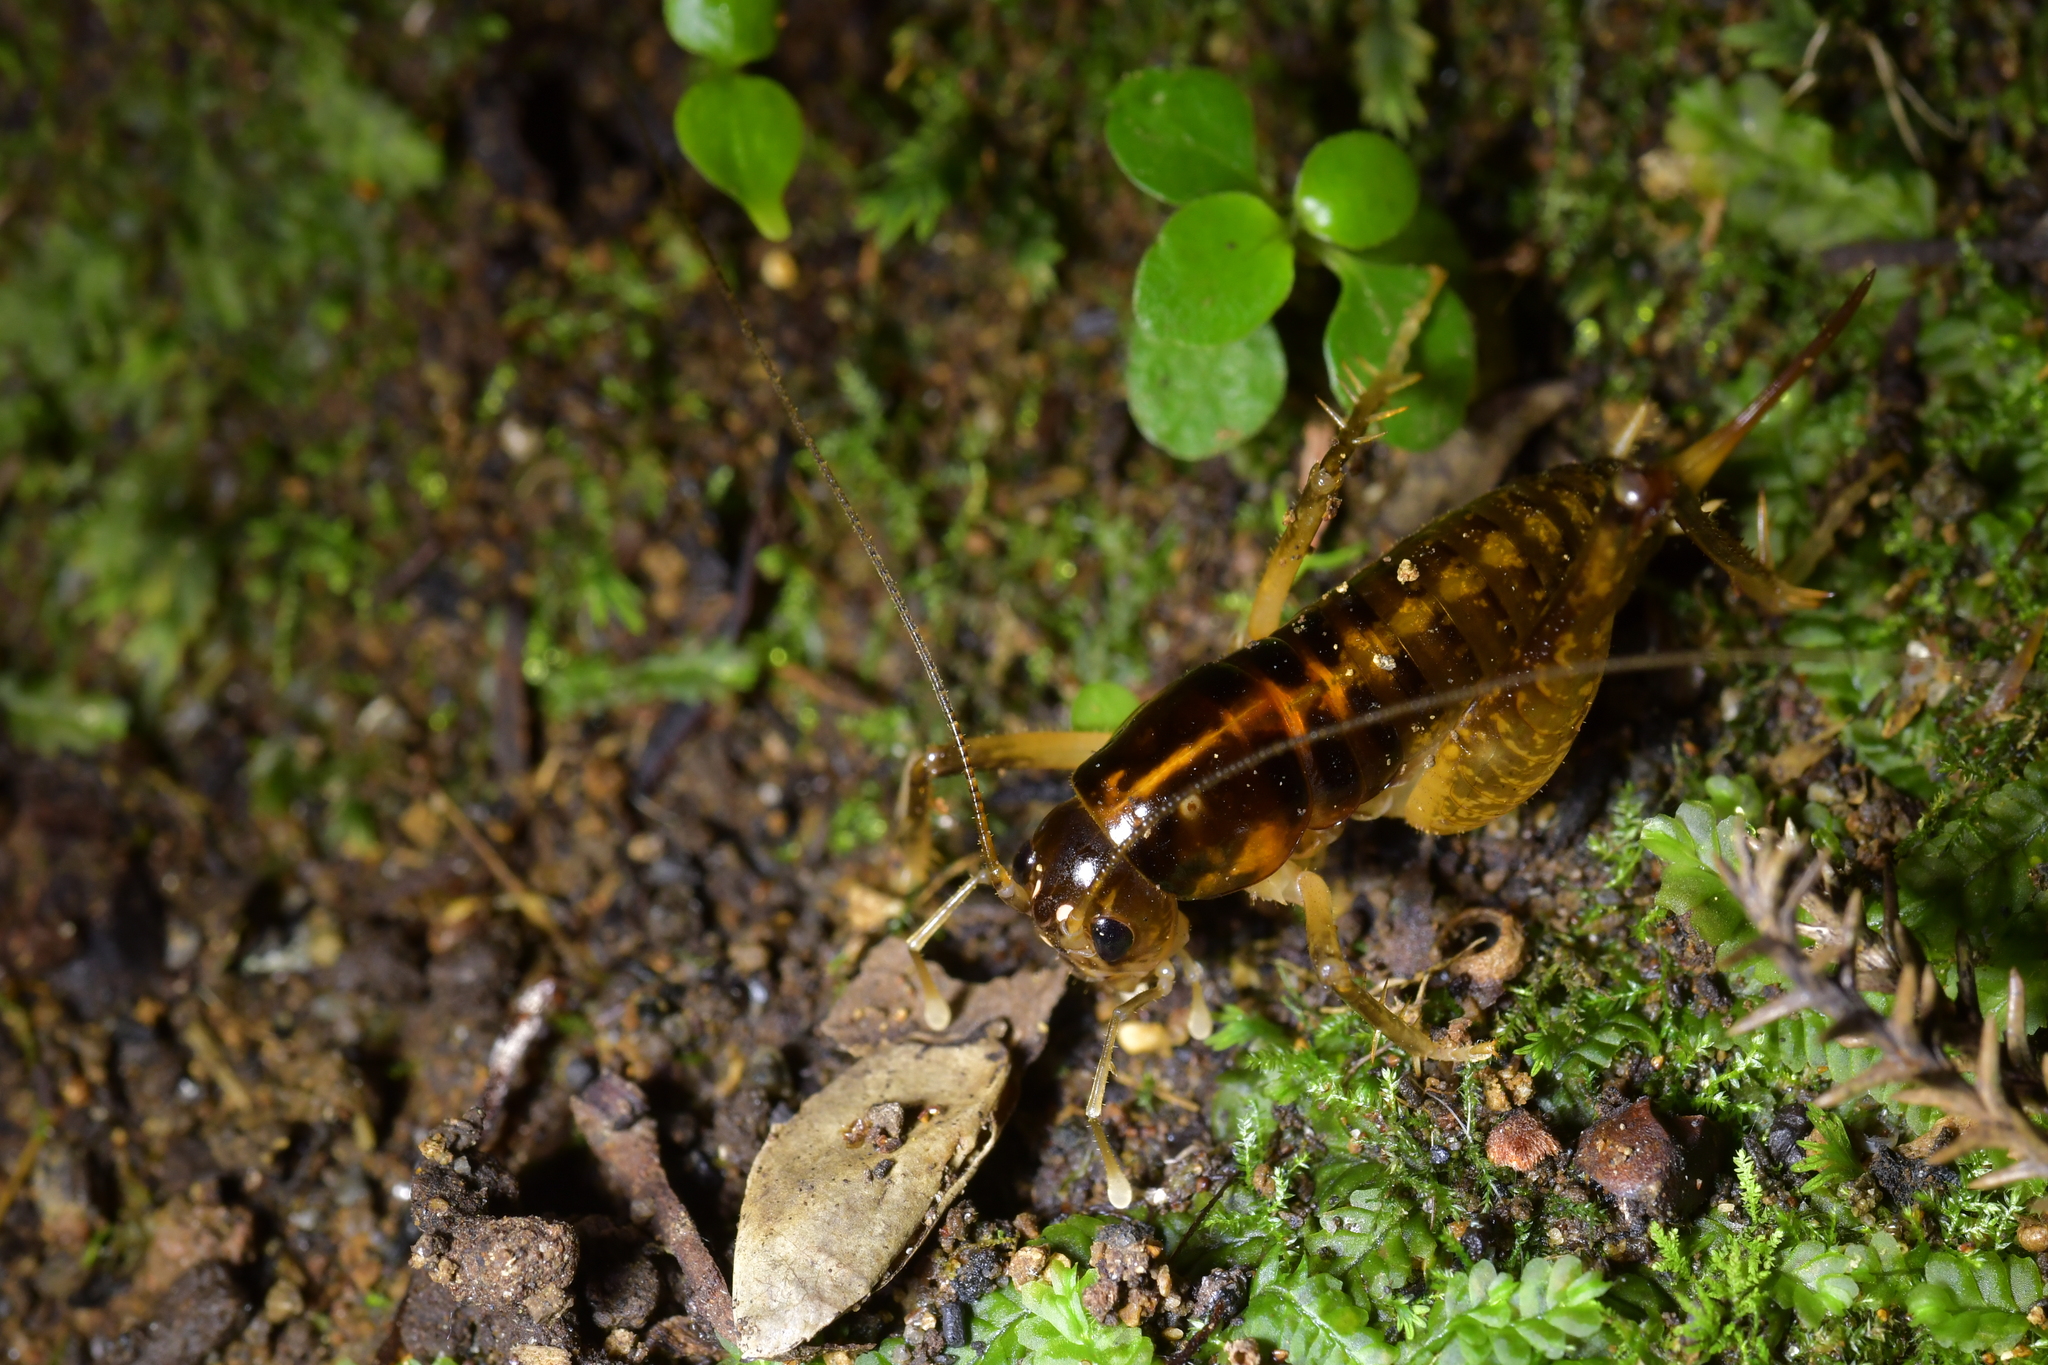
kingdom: Animalia
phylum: Arthropoda
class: Insecta
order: Orthoptera
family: Anostostomatidae
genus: Hemiandrus
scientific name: Hemiandrus brucei
